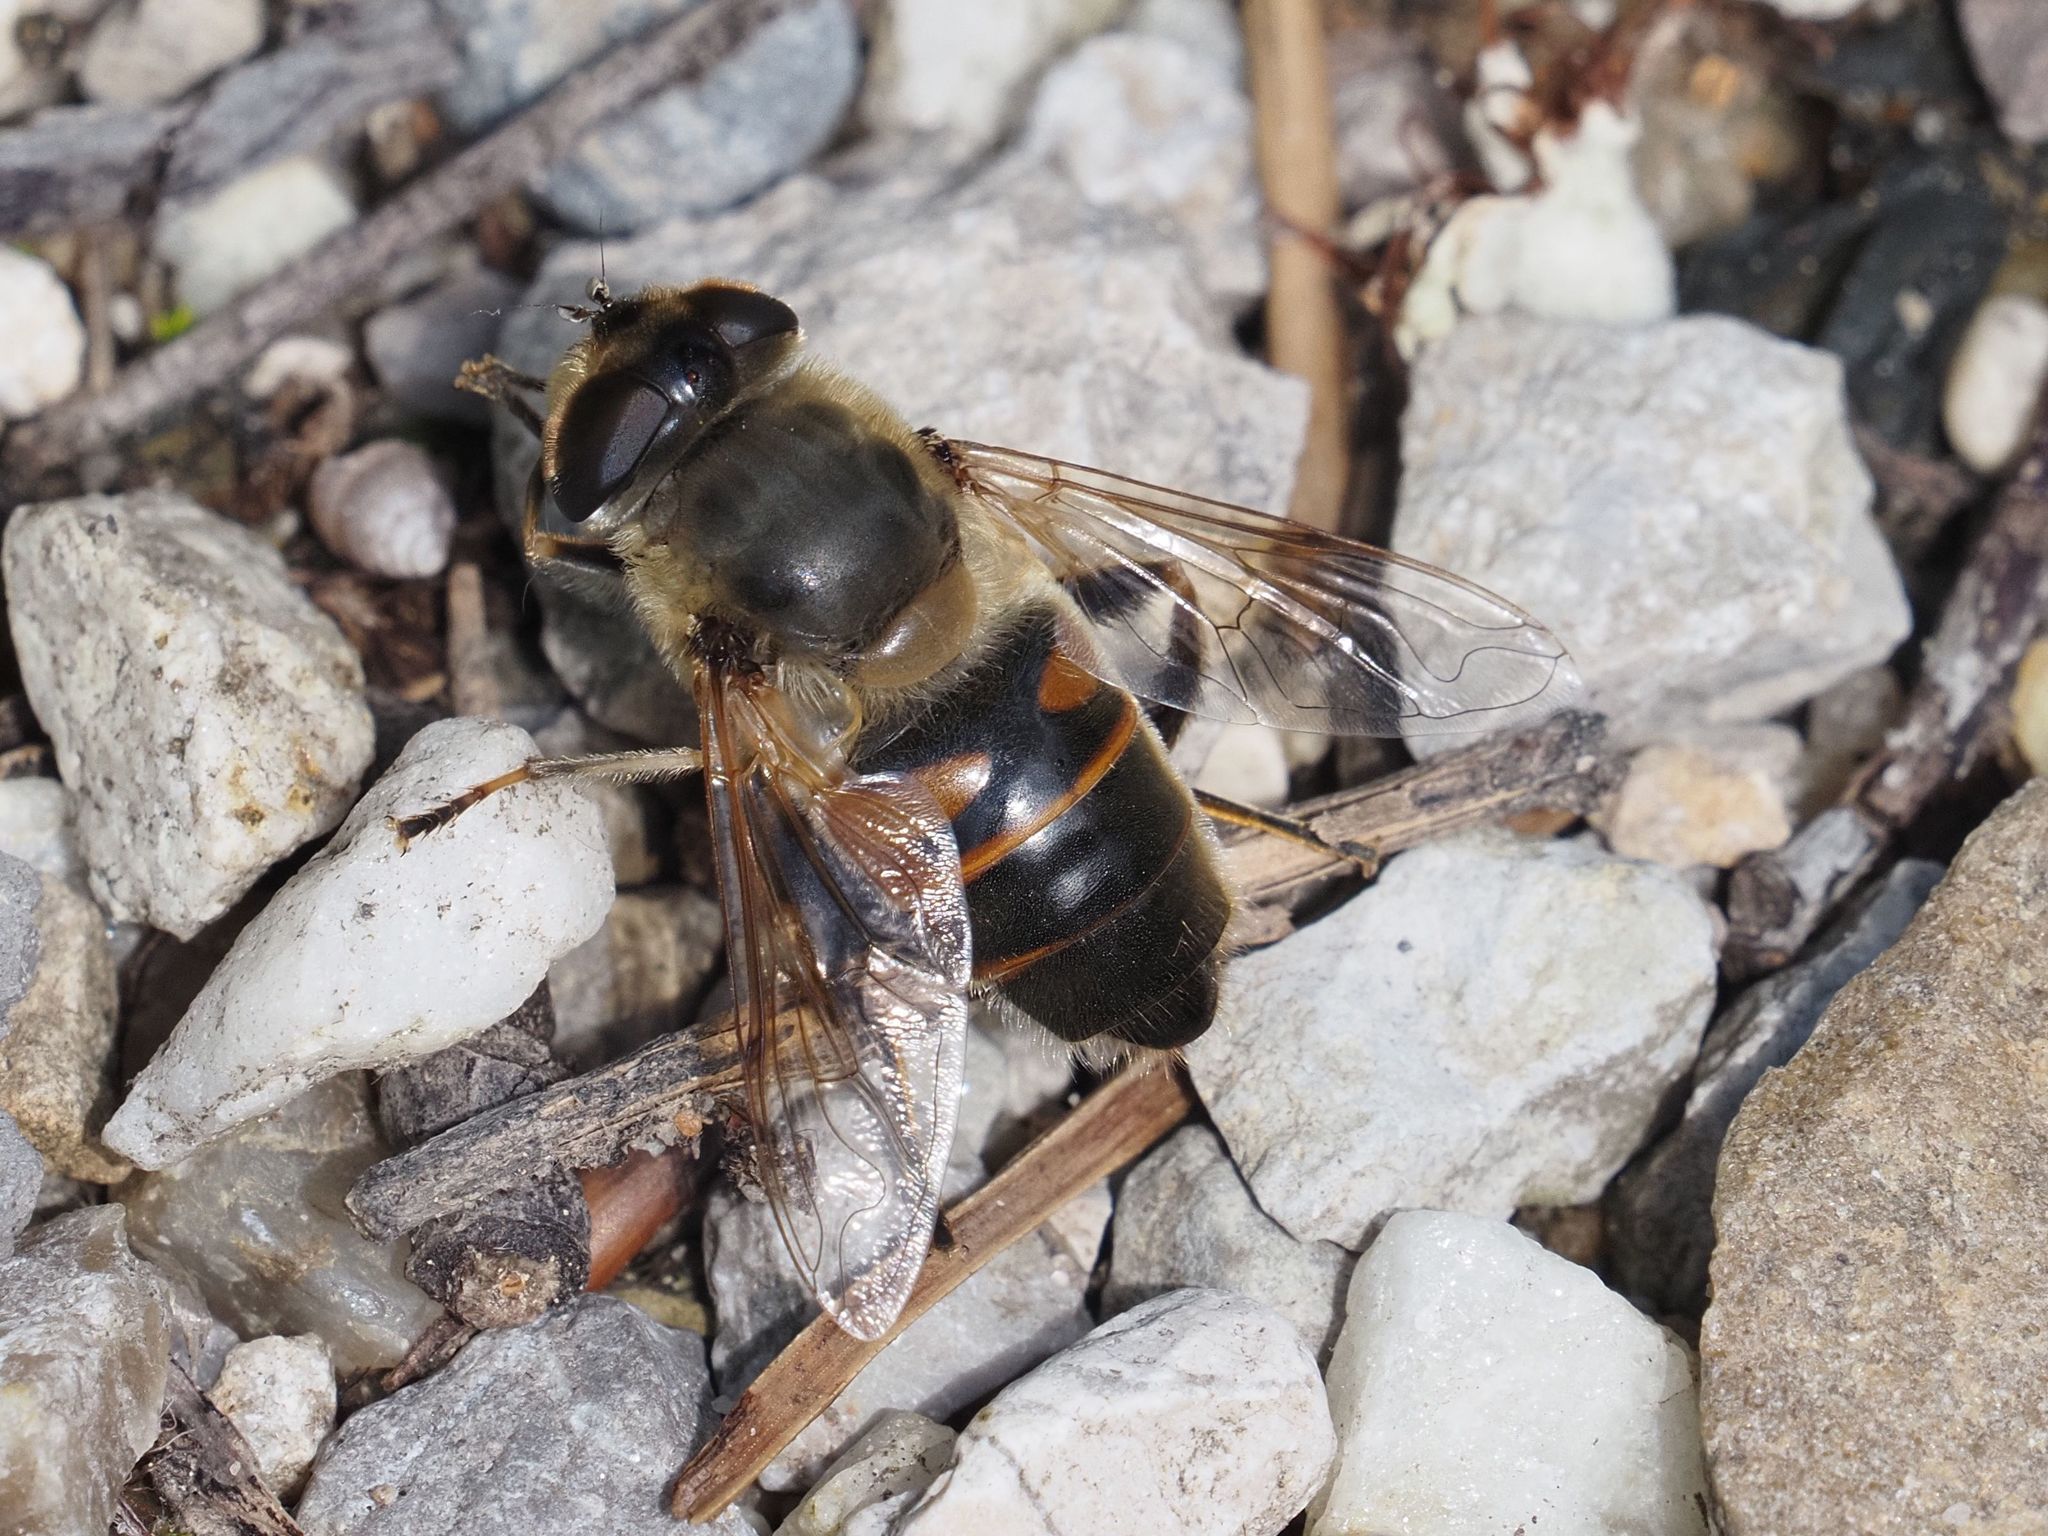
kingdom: Animalia
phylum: Arthropoda
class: Insecta
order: Diptera
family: Syrphidae
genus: Eristalis
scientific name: Eristalis tenax
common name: Drone fly
